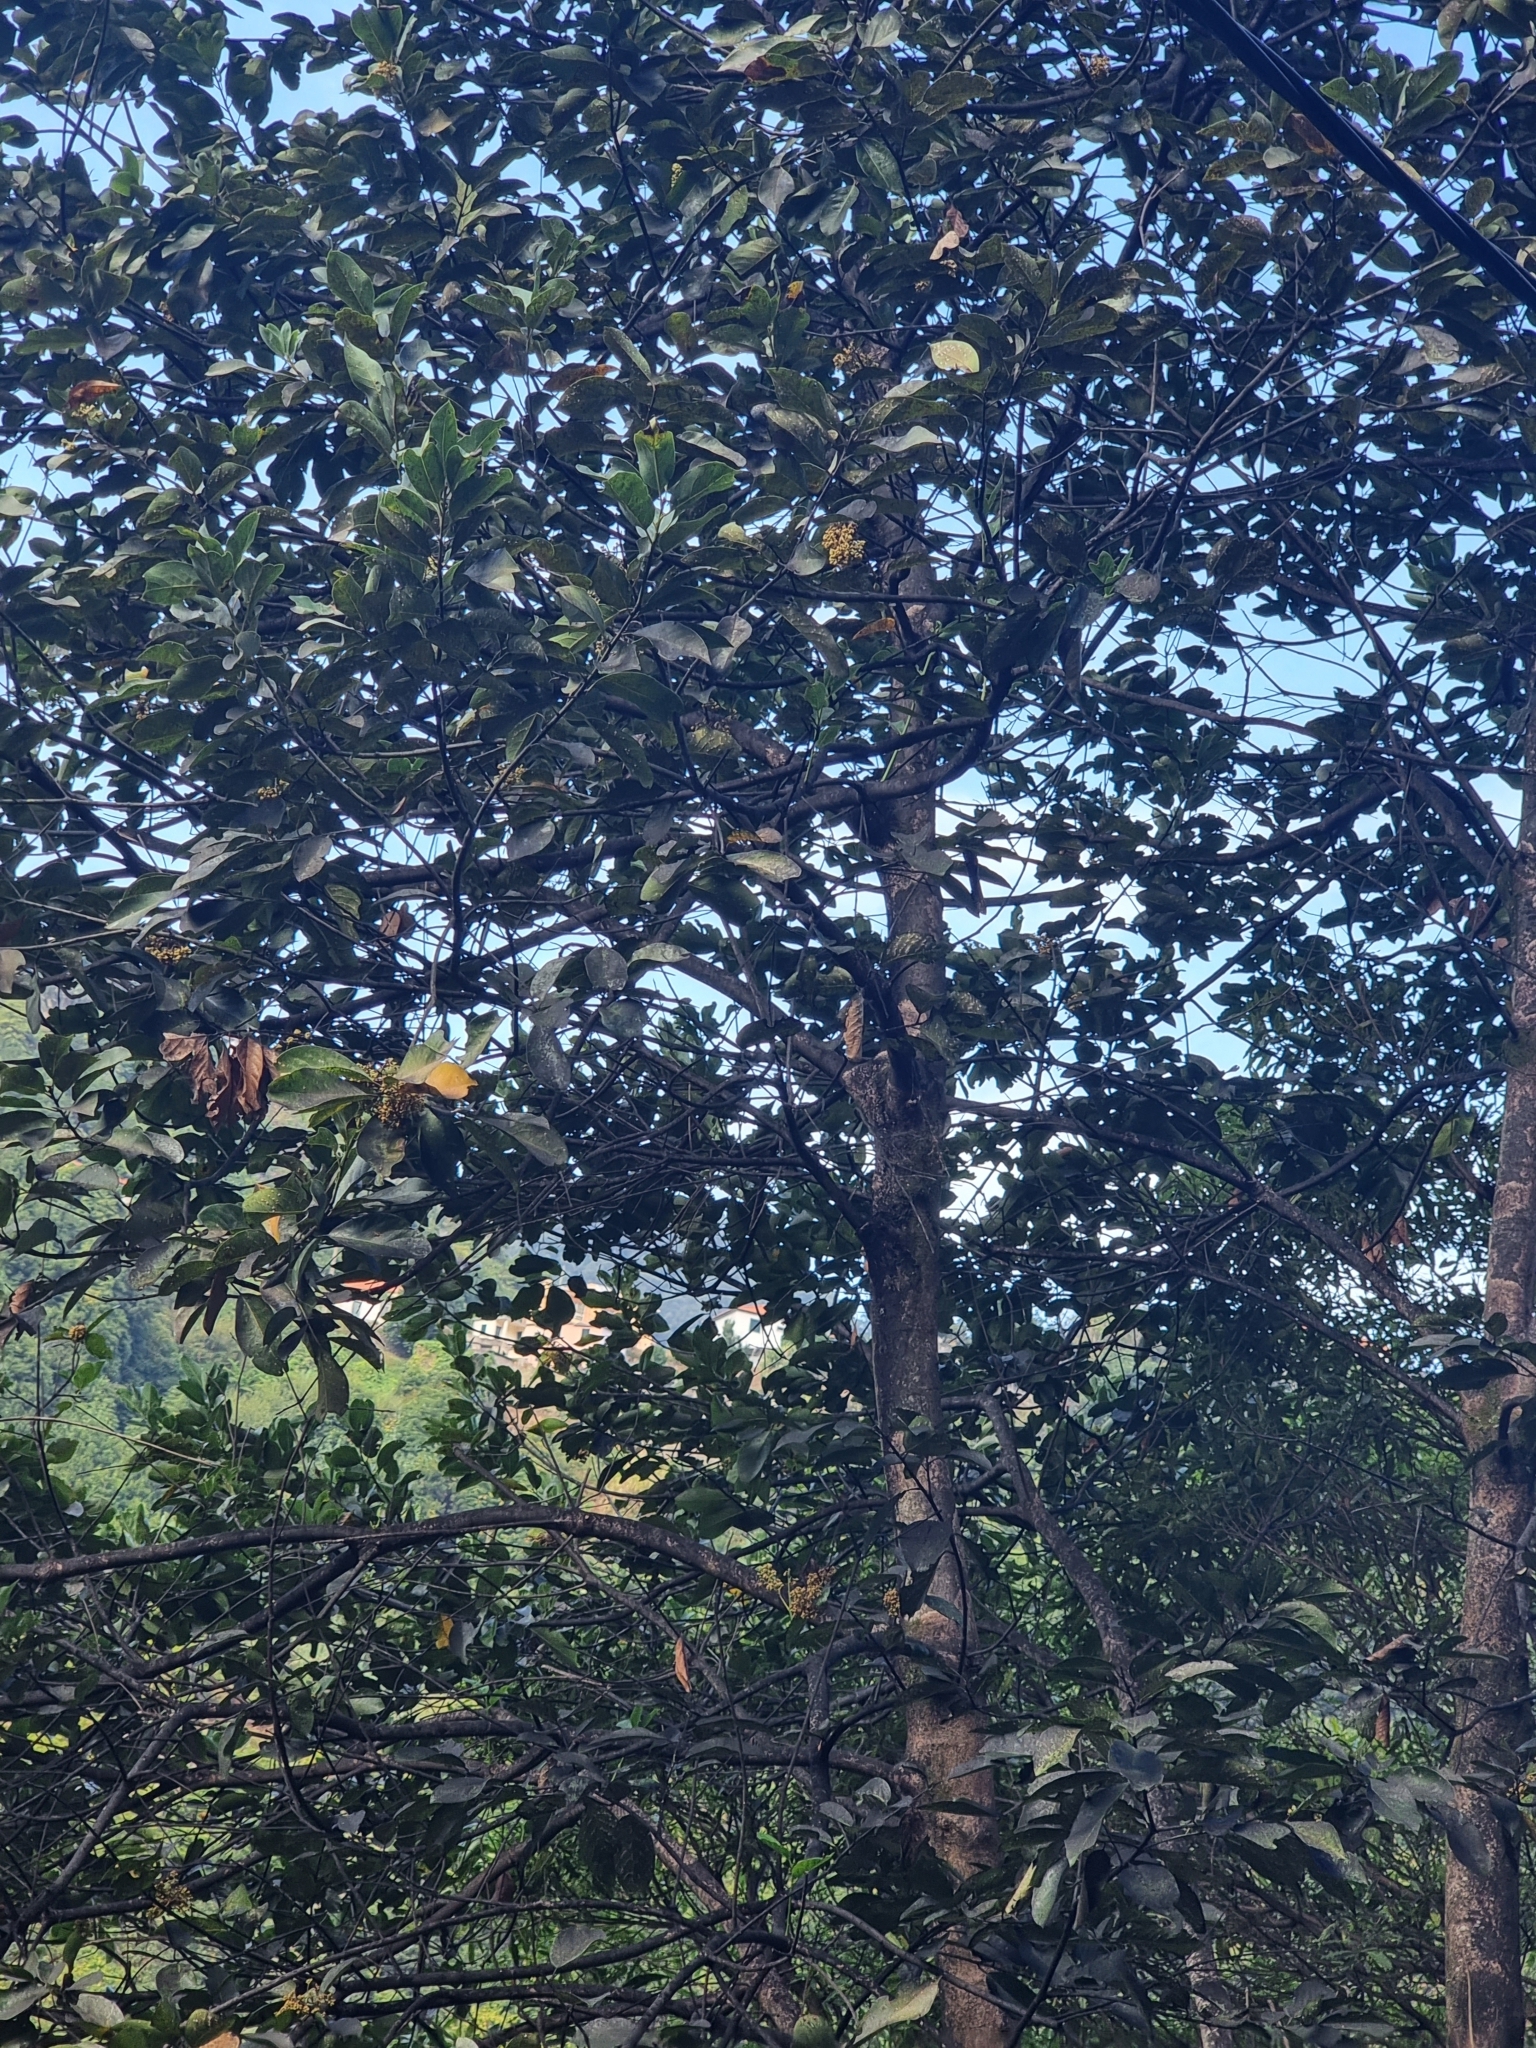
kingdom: Plantae
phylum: Tracheophyta
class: Magnoliopsida
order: Laurales
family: Lauraceae
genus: Laurus
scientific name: Laurus novocanariensis
